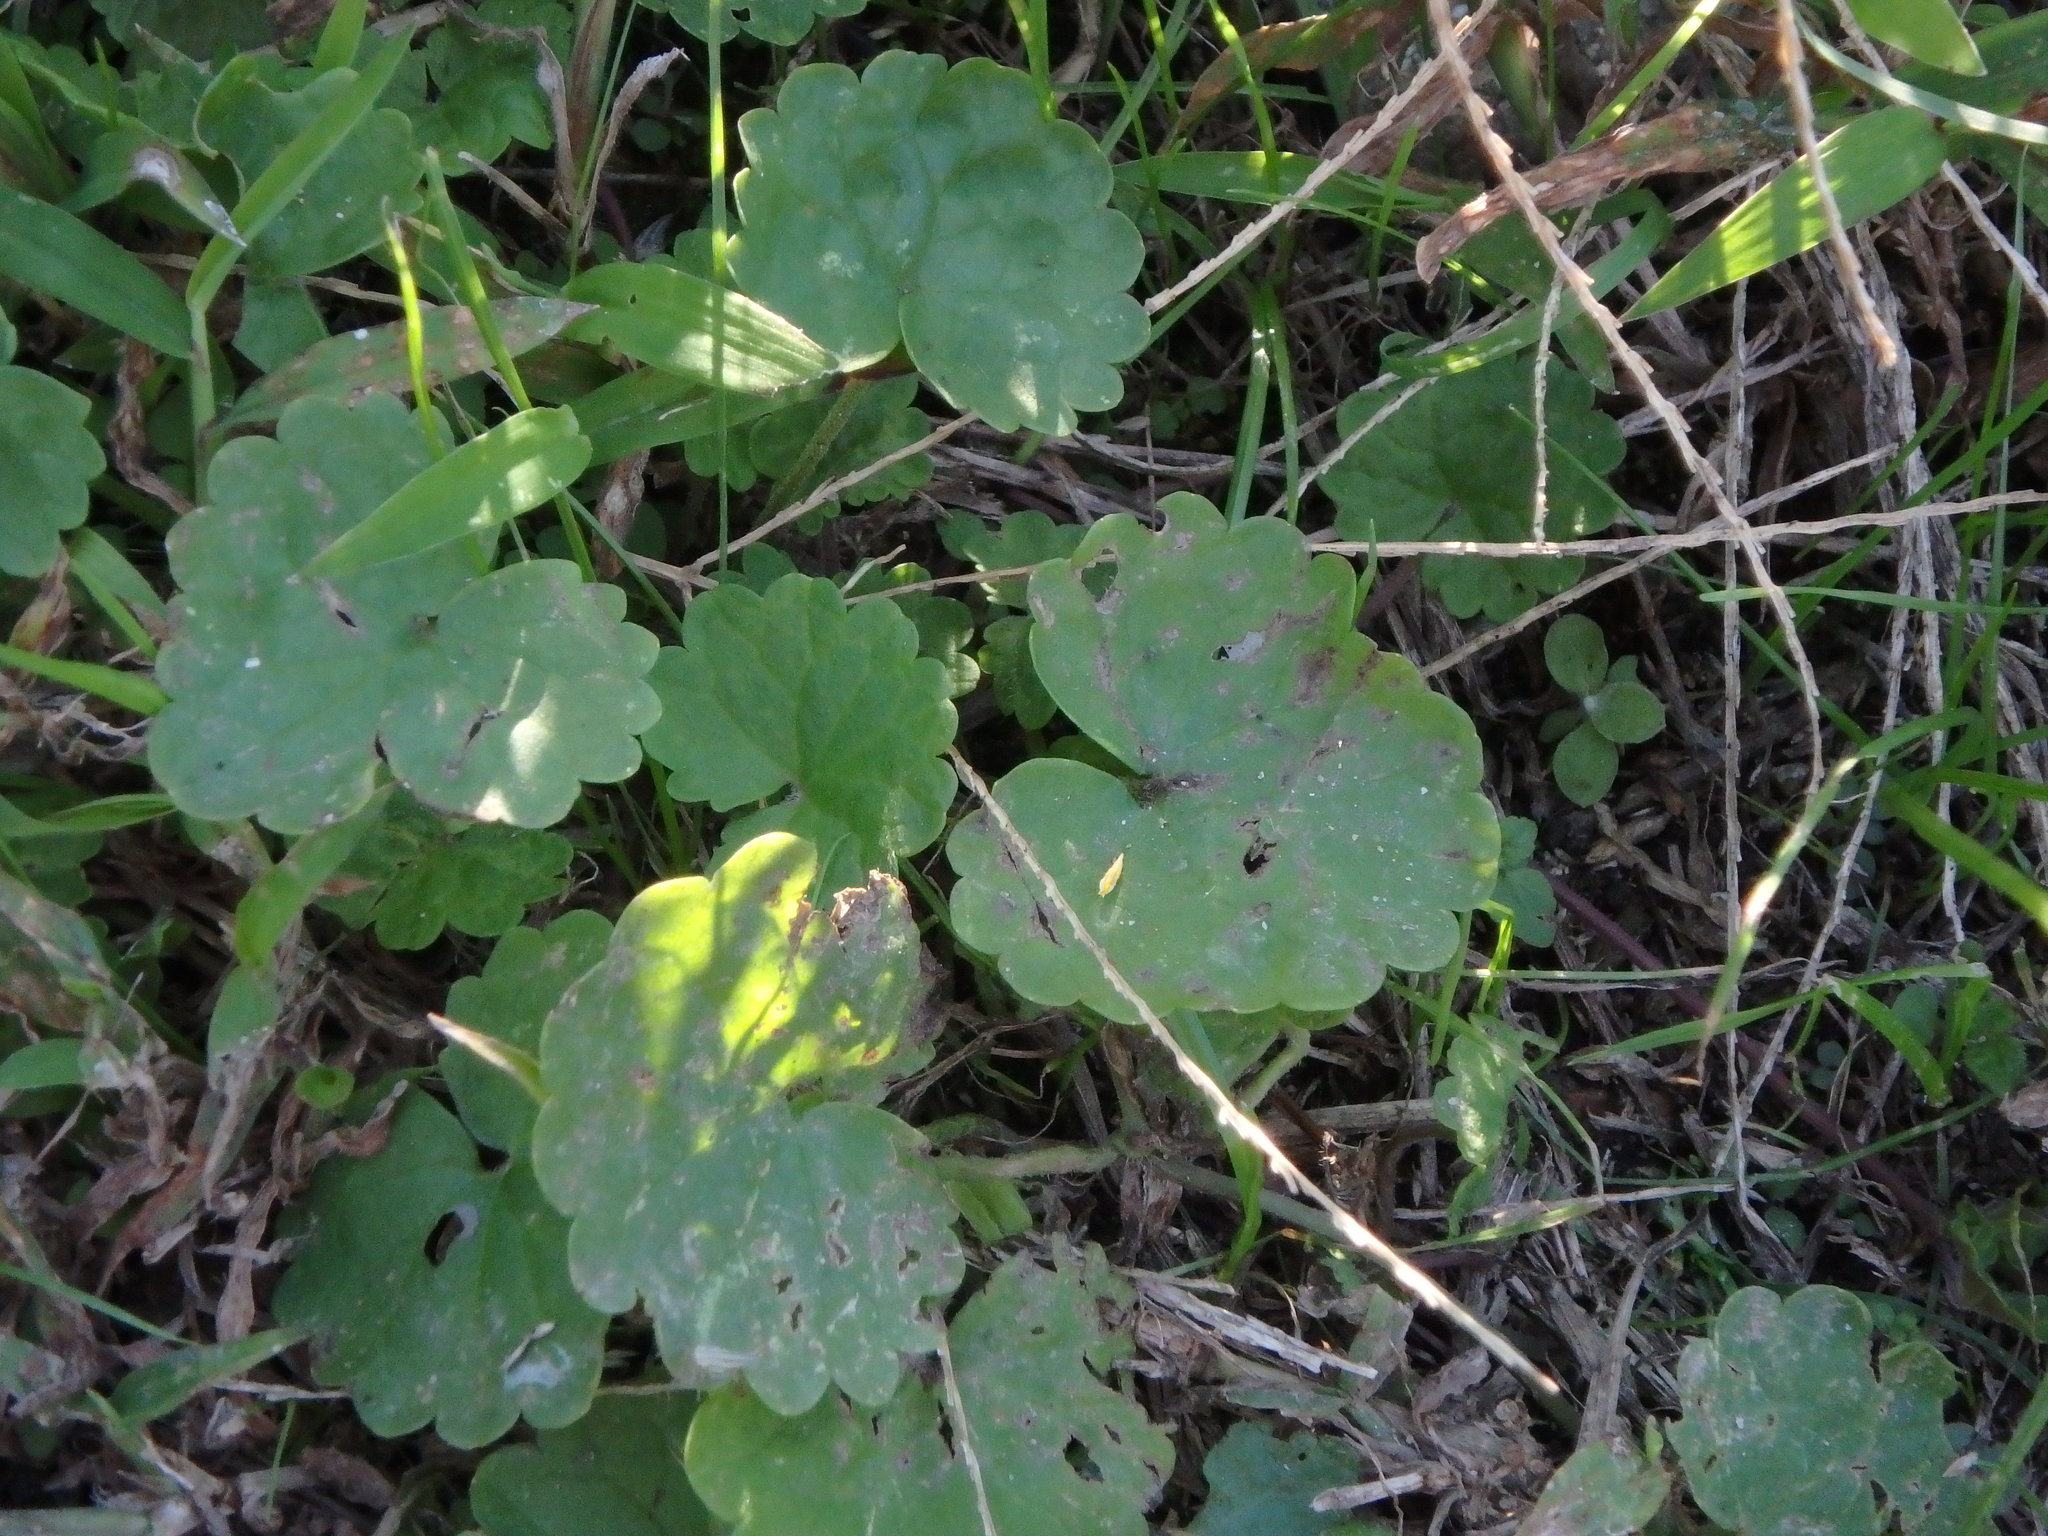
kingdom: Plantae
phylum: Tracheophyta
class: Magnoliopsida
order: Lamiales
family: Lamiaceae
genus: Glechoma
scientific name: Glechoma grandis
